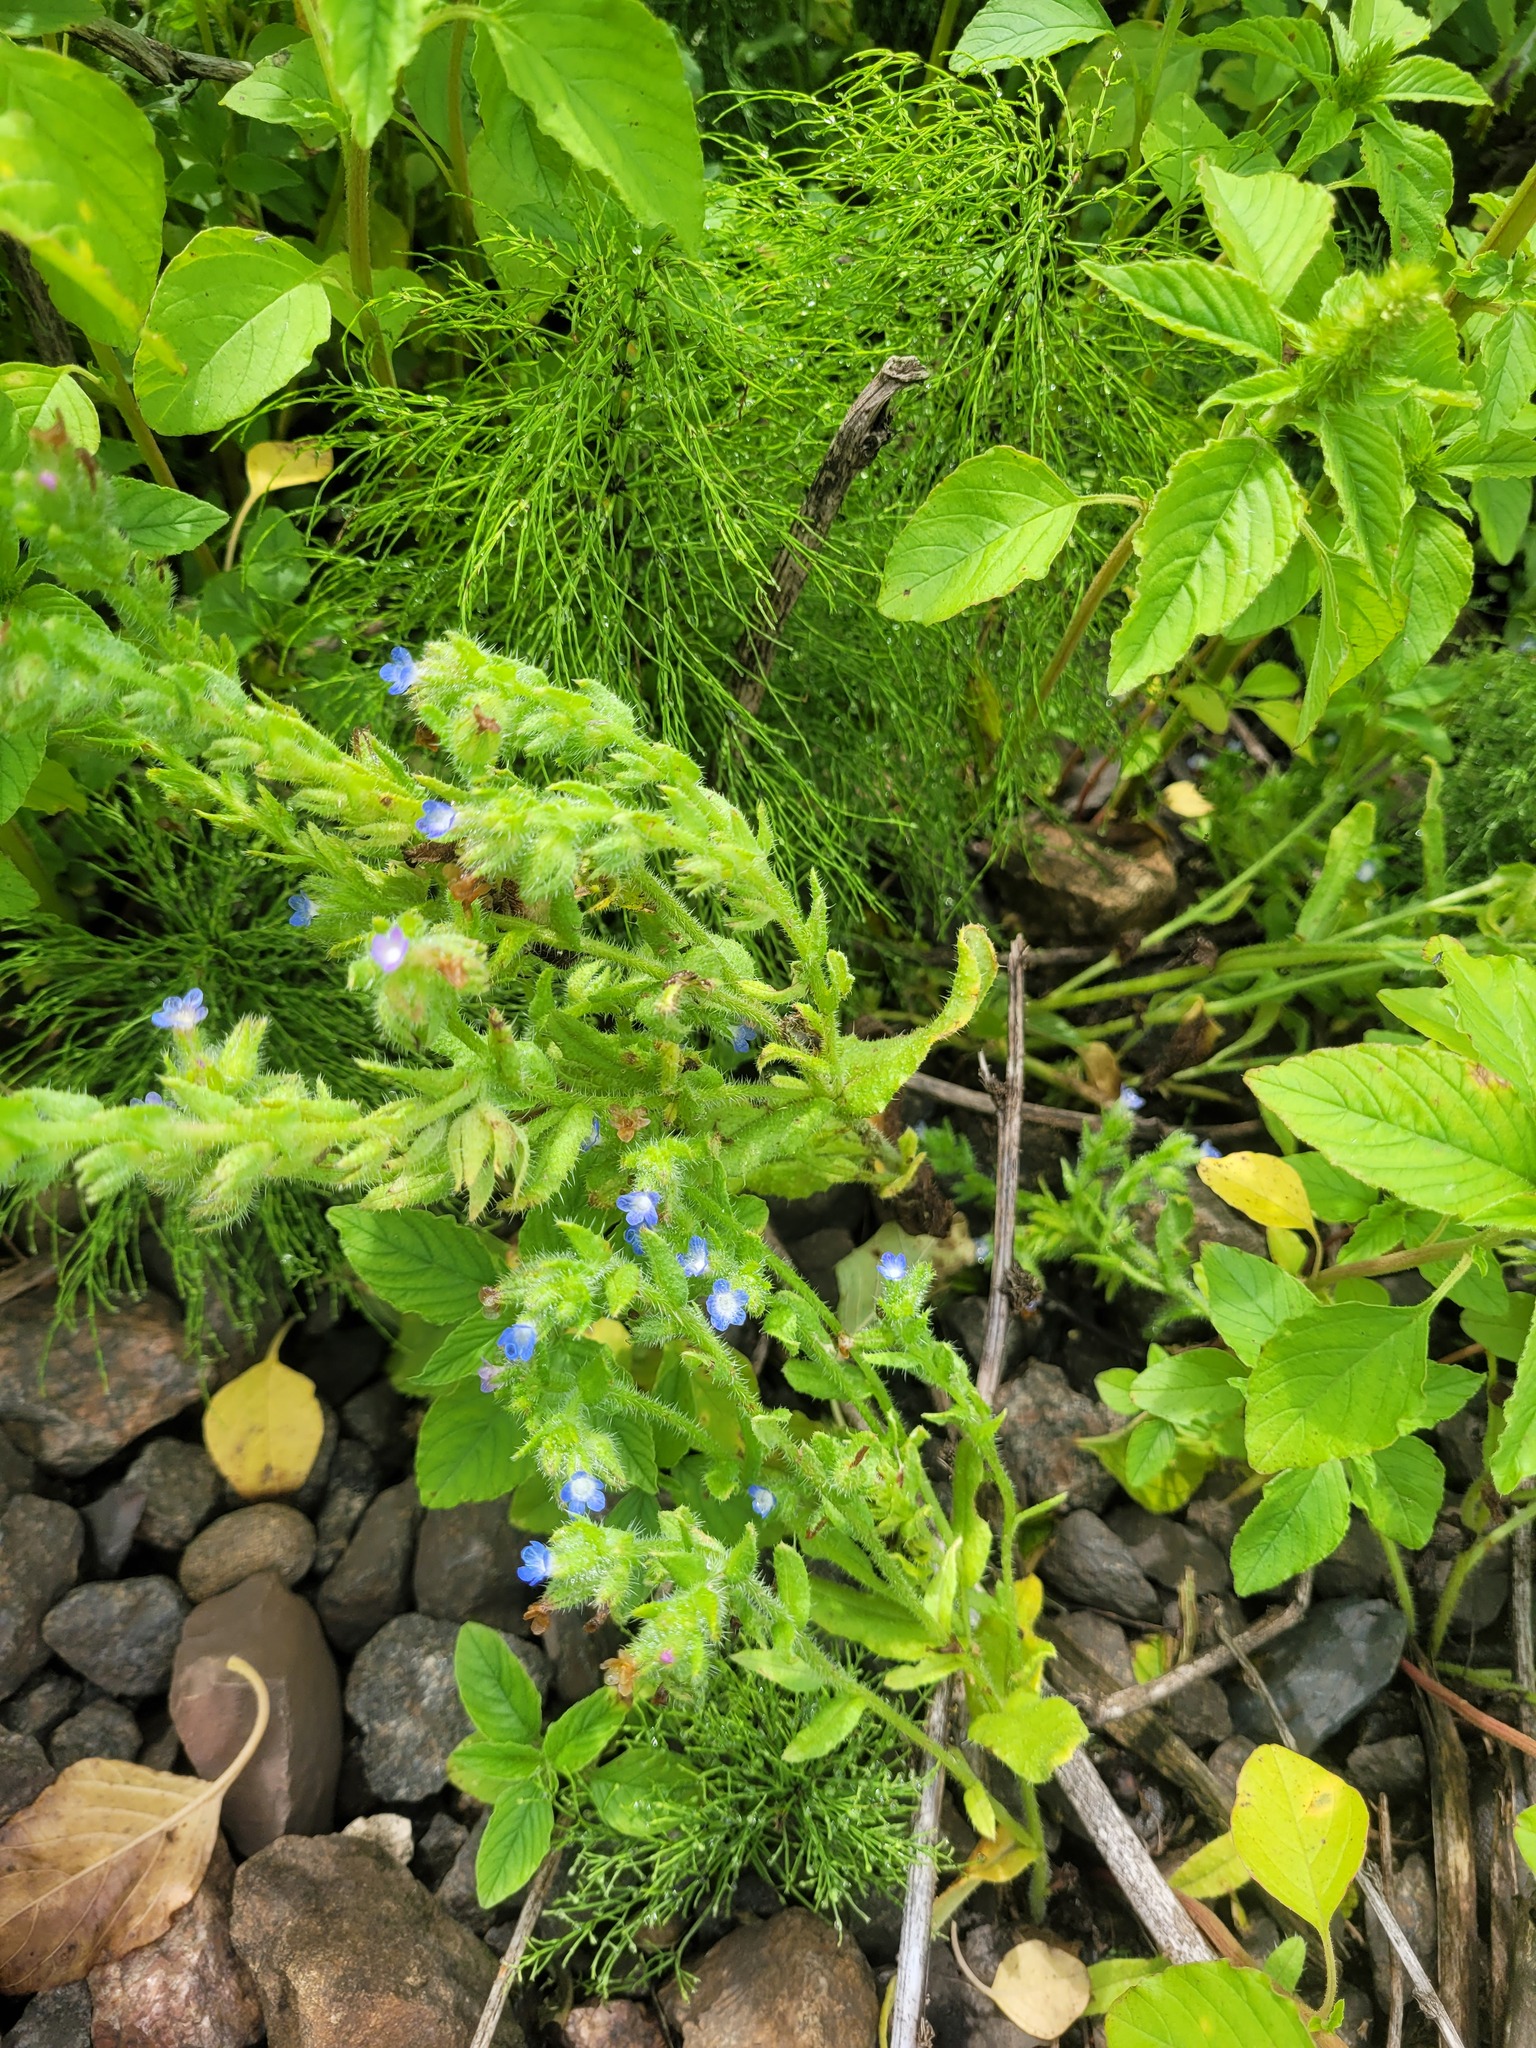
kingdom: Plantae
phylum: Tracheophyta
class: Magnoliopsida
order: Boraginales
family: Boraginaceae
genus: Lycopsis
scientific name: Lycopsis arvensis
